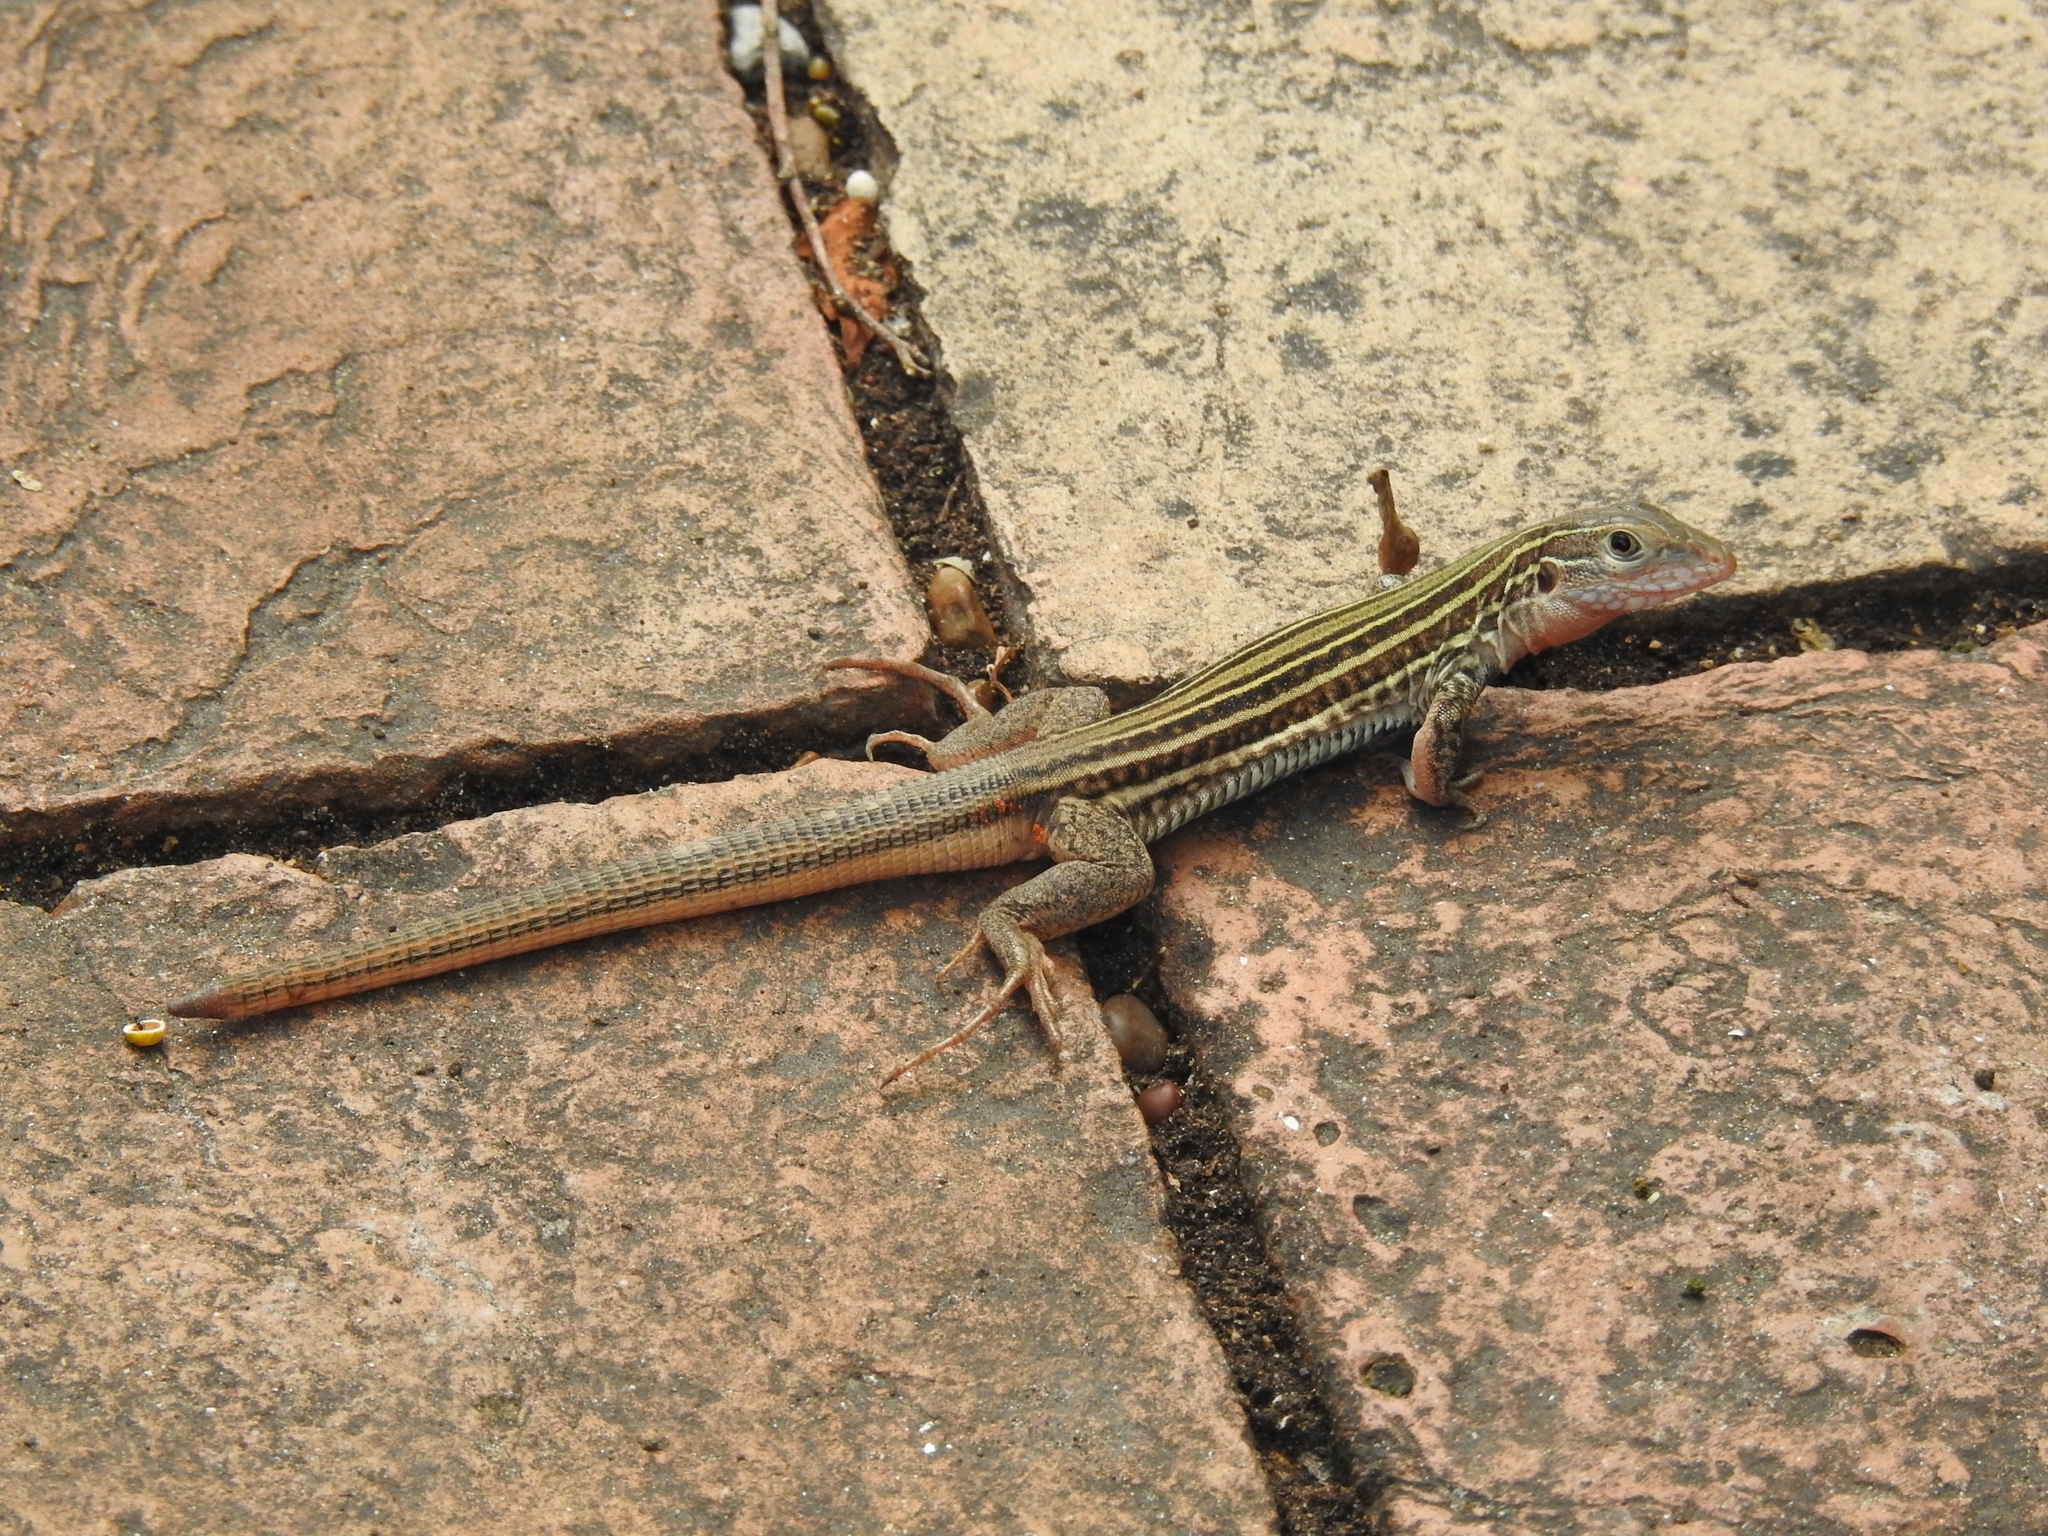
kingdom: Animalia
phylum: Chordata
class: Squamata
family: Teiidae
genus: Aspidoscelis
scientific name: Aspidoscelis gularis
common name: Eastern spotted whiptail
